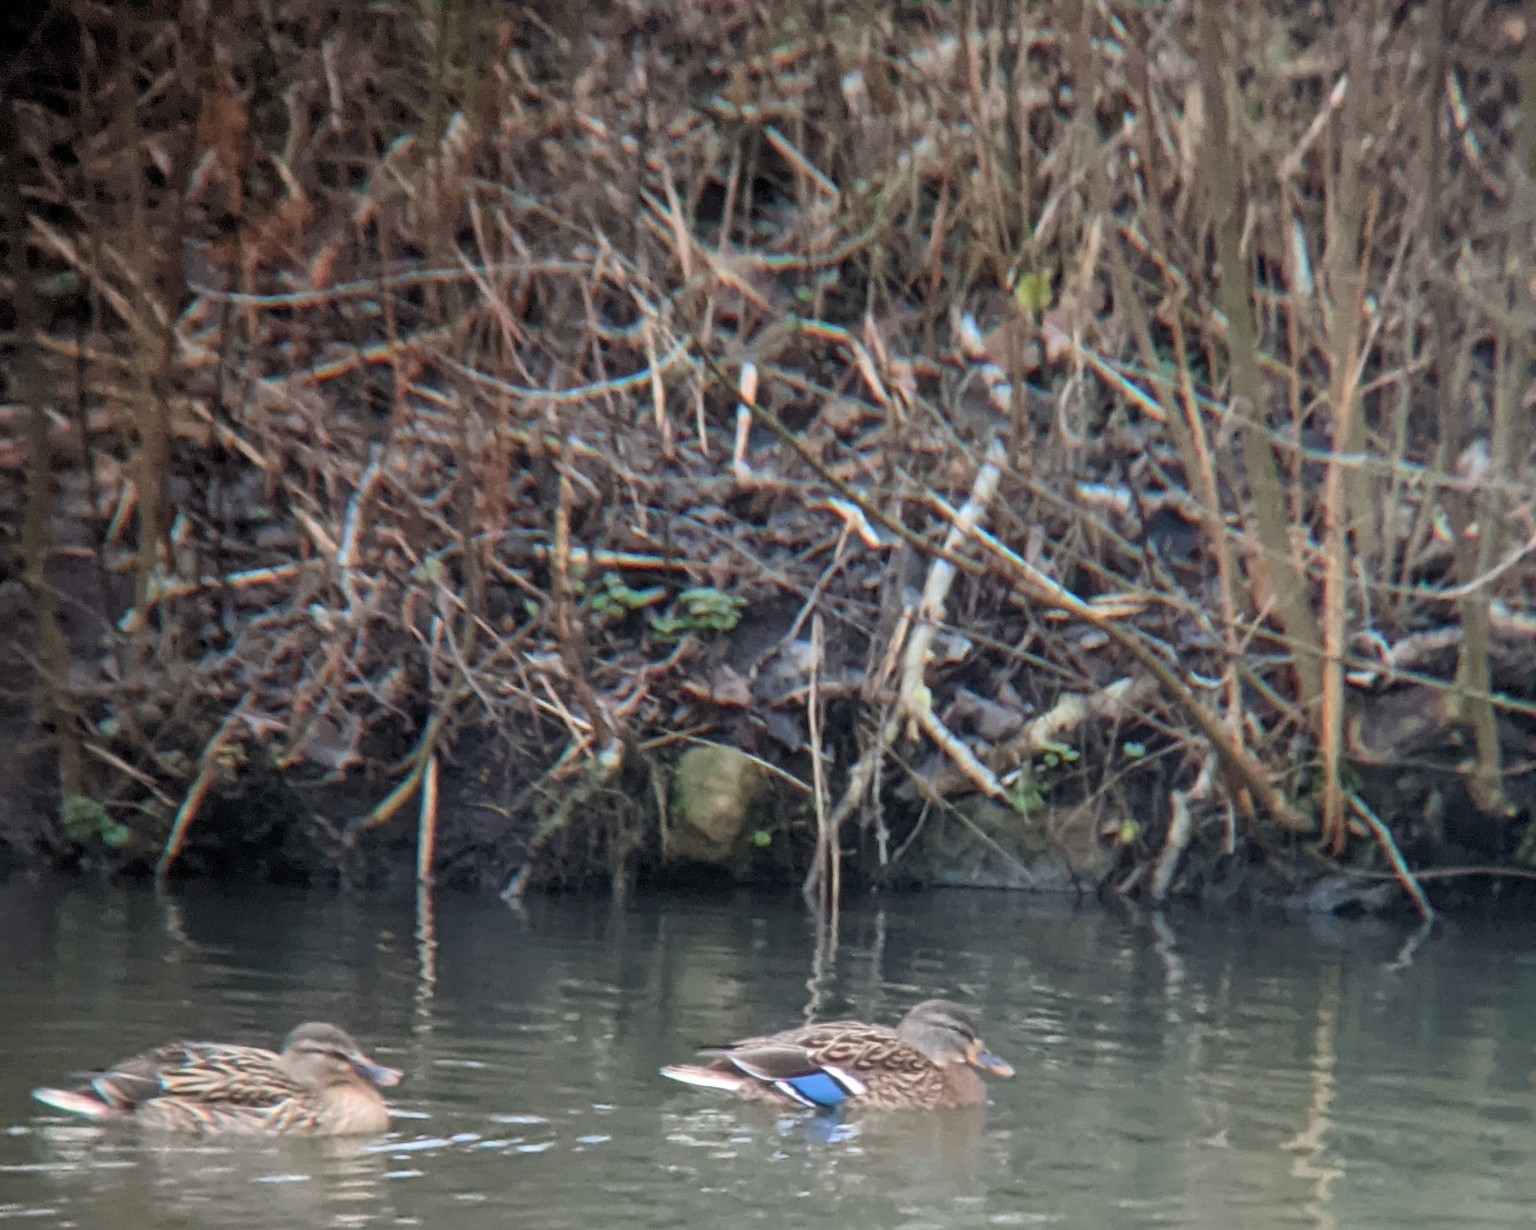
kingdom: Animalia
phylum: Chordata
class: Aves
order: Anseriformes
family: Anatidae
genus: Anas
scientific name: Anas platyrhynchos
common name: Mallard
